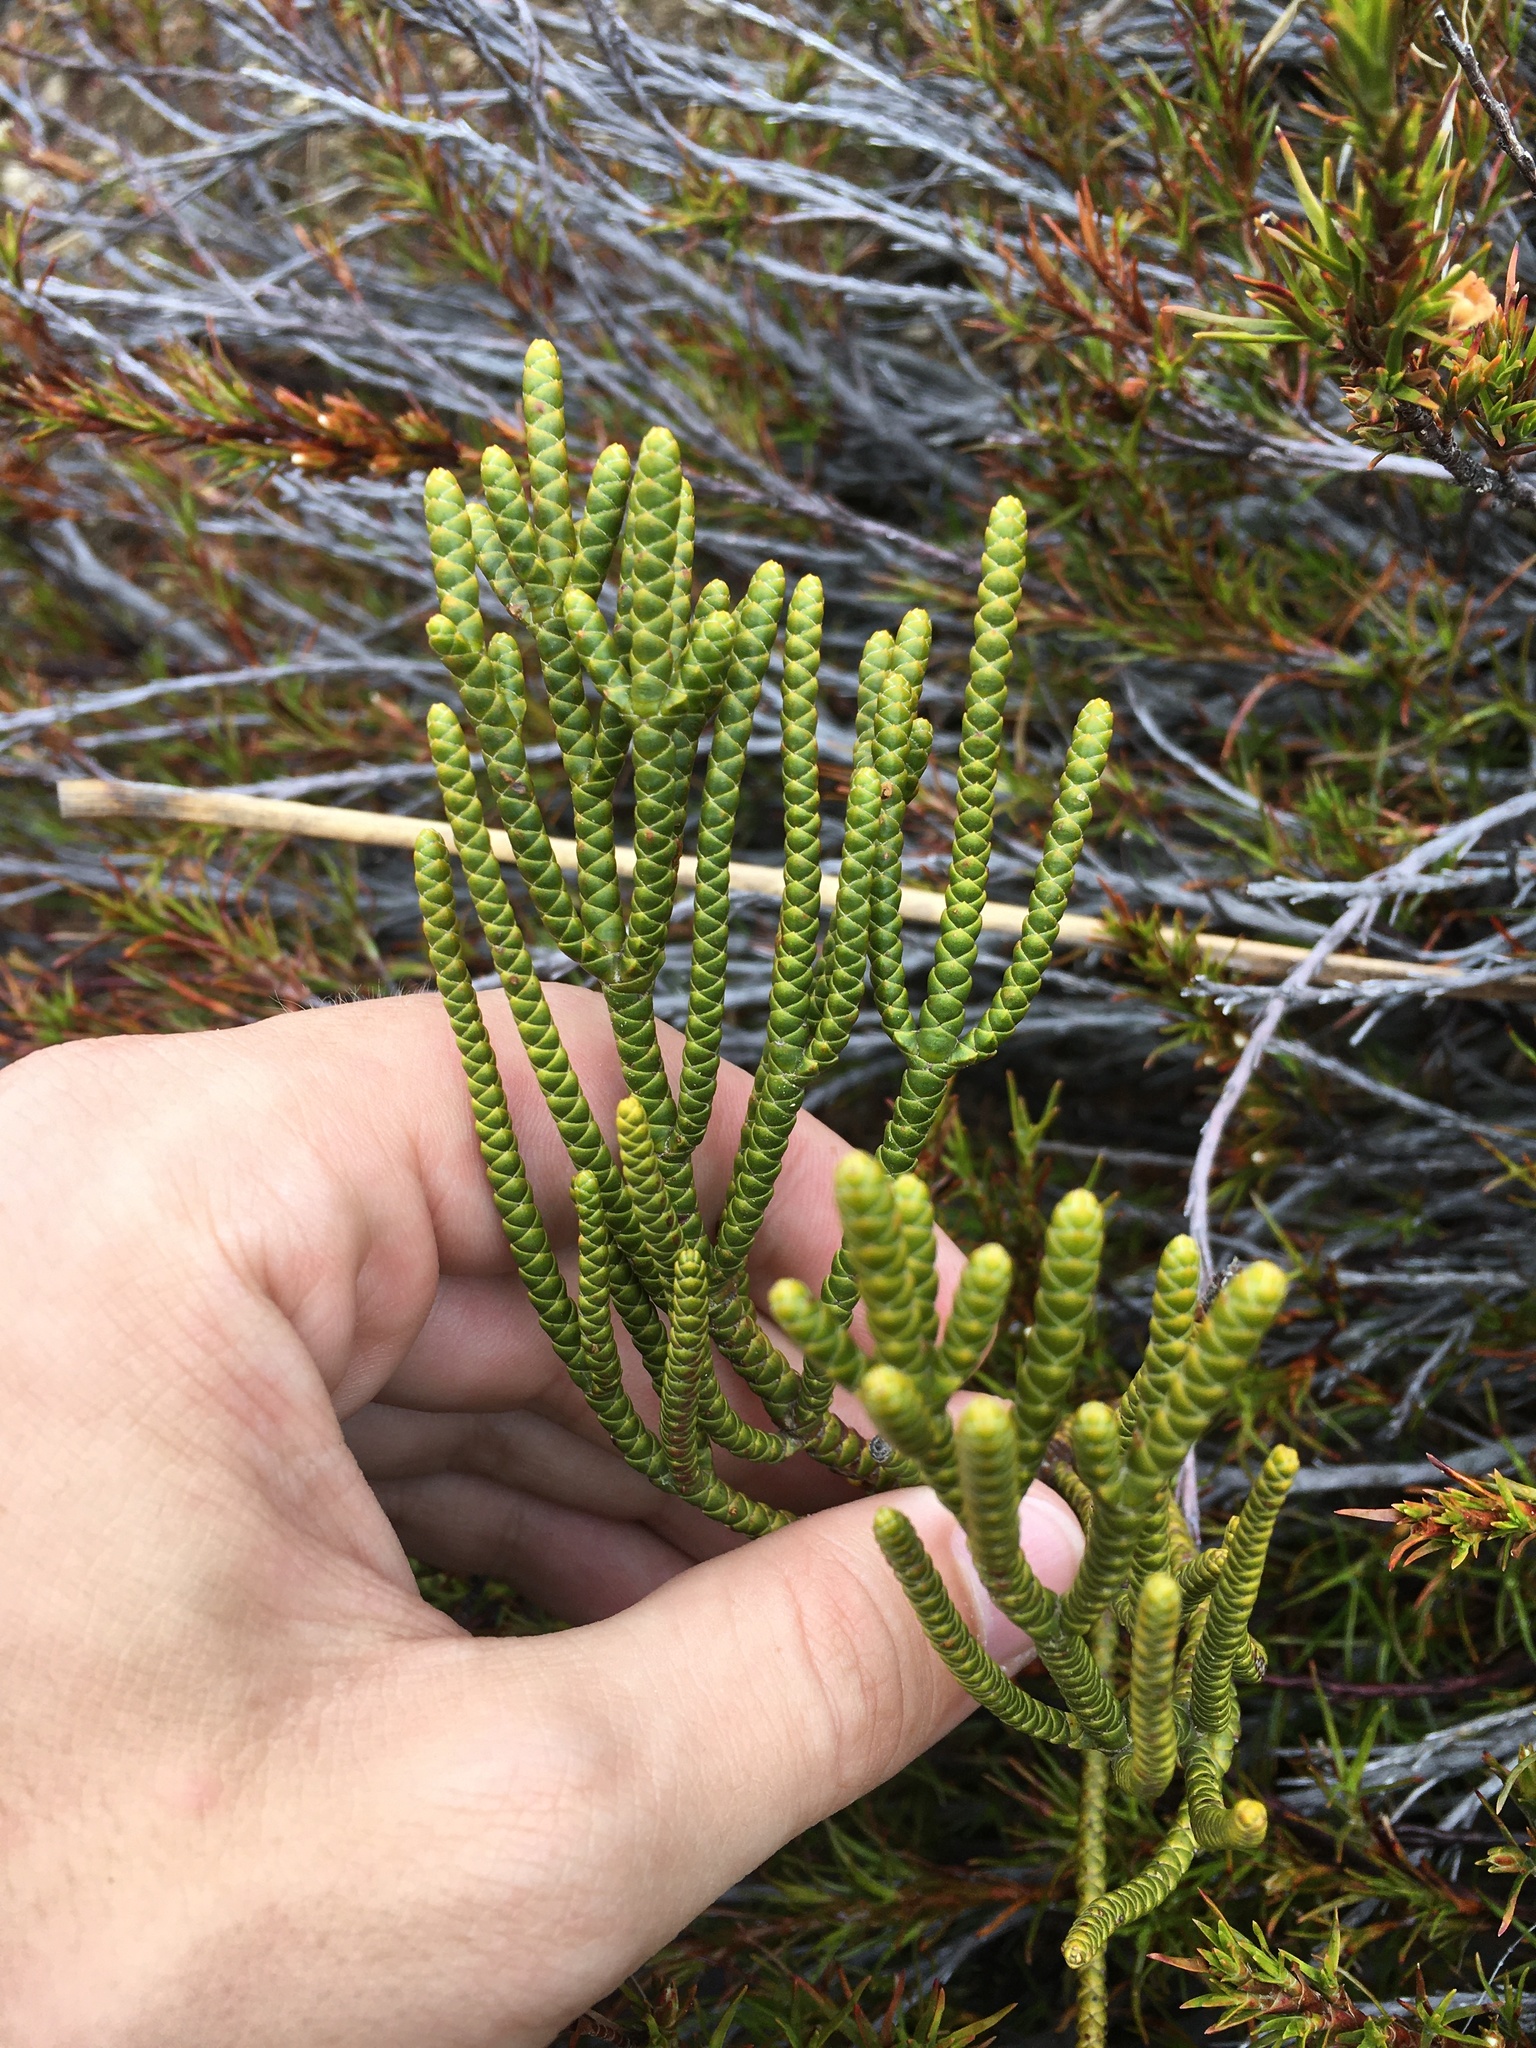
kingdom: Plantae
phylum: Tracheophyta
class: Magnoliopsida
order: Lamiales
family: Plantaginaceae
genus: Veronica
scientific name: Veronica hectorii
